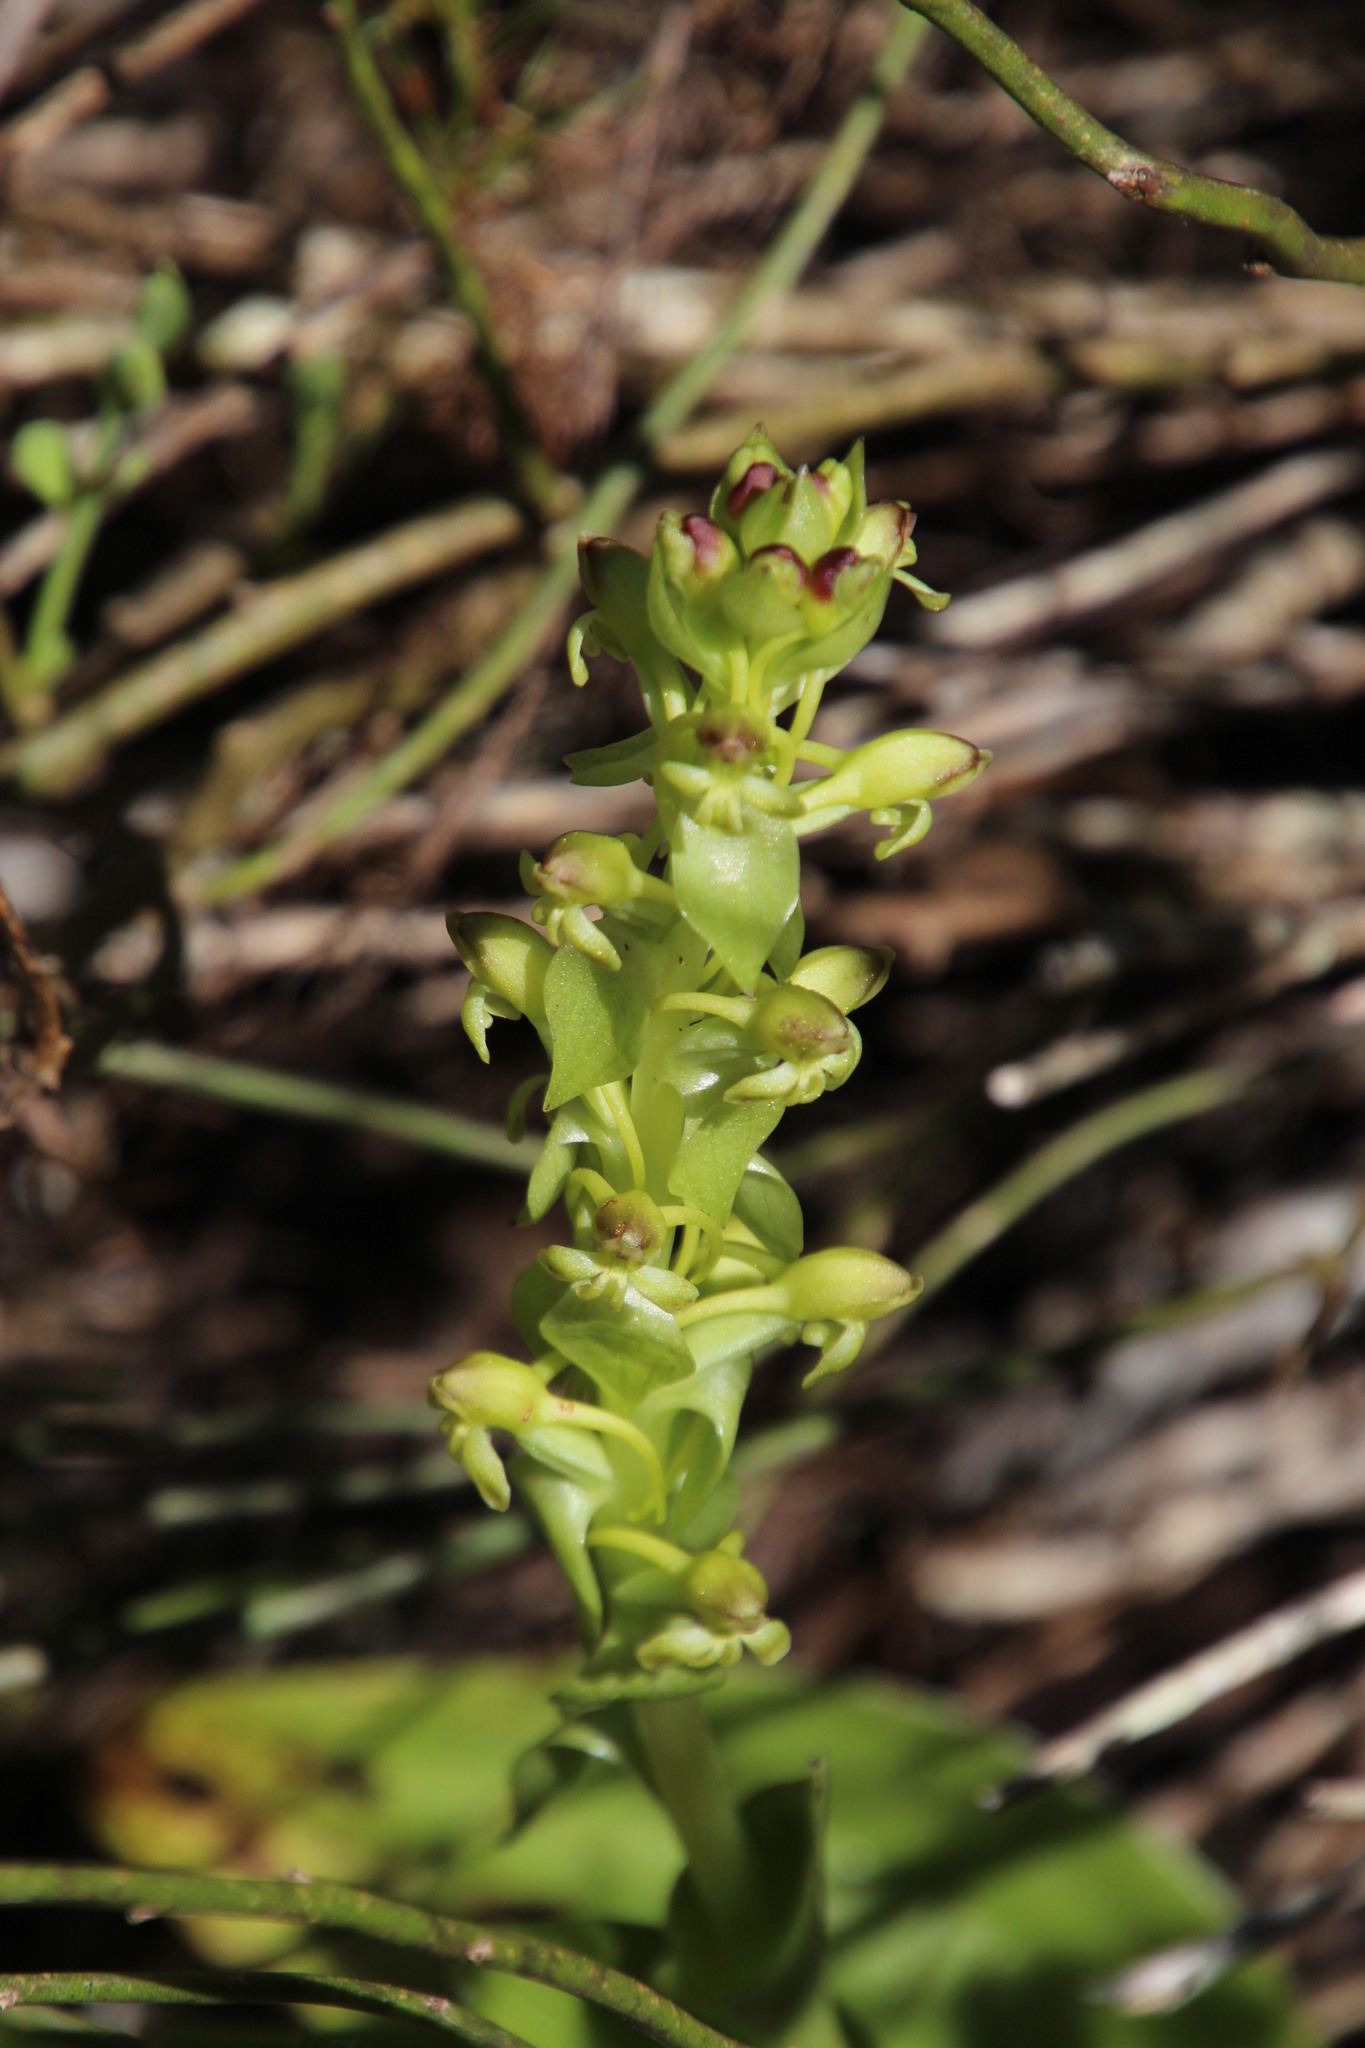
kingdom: Plantae
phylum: Tracheophyta
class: Liliopsida
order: Asparagales
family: Orchidaceae
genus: Satyrium
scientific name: Satyrium odorum
